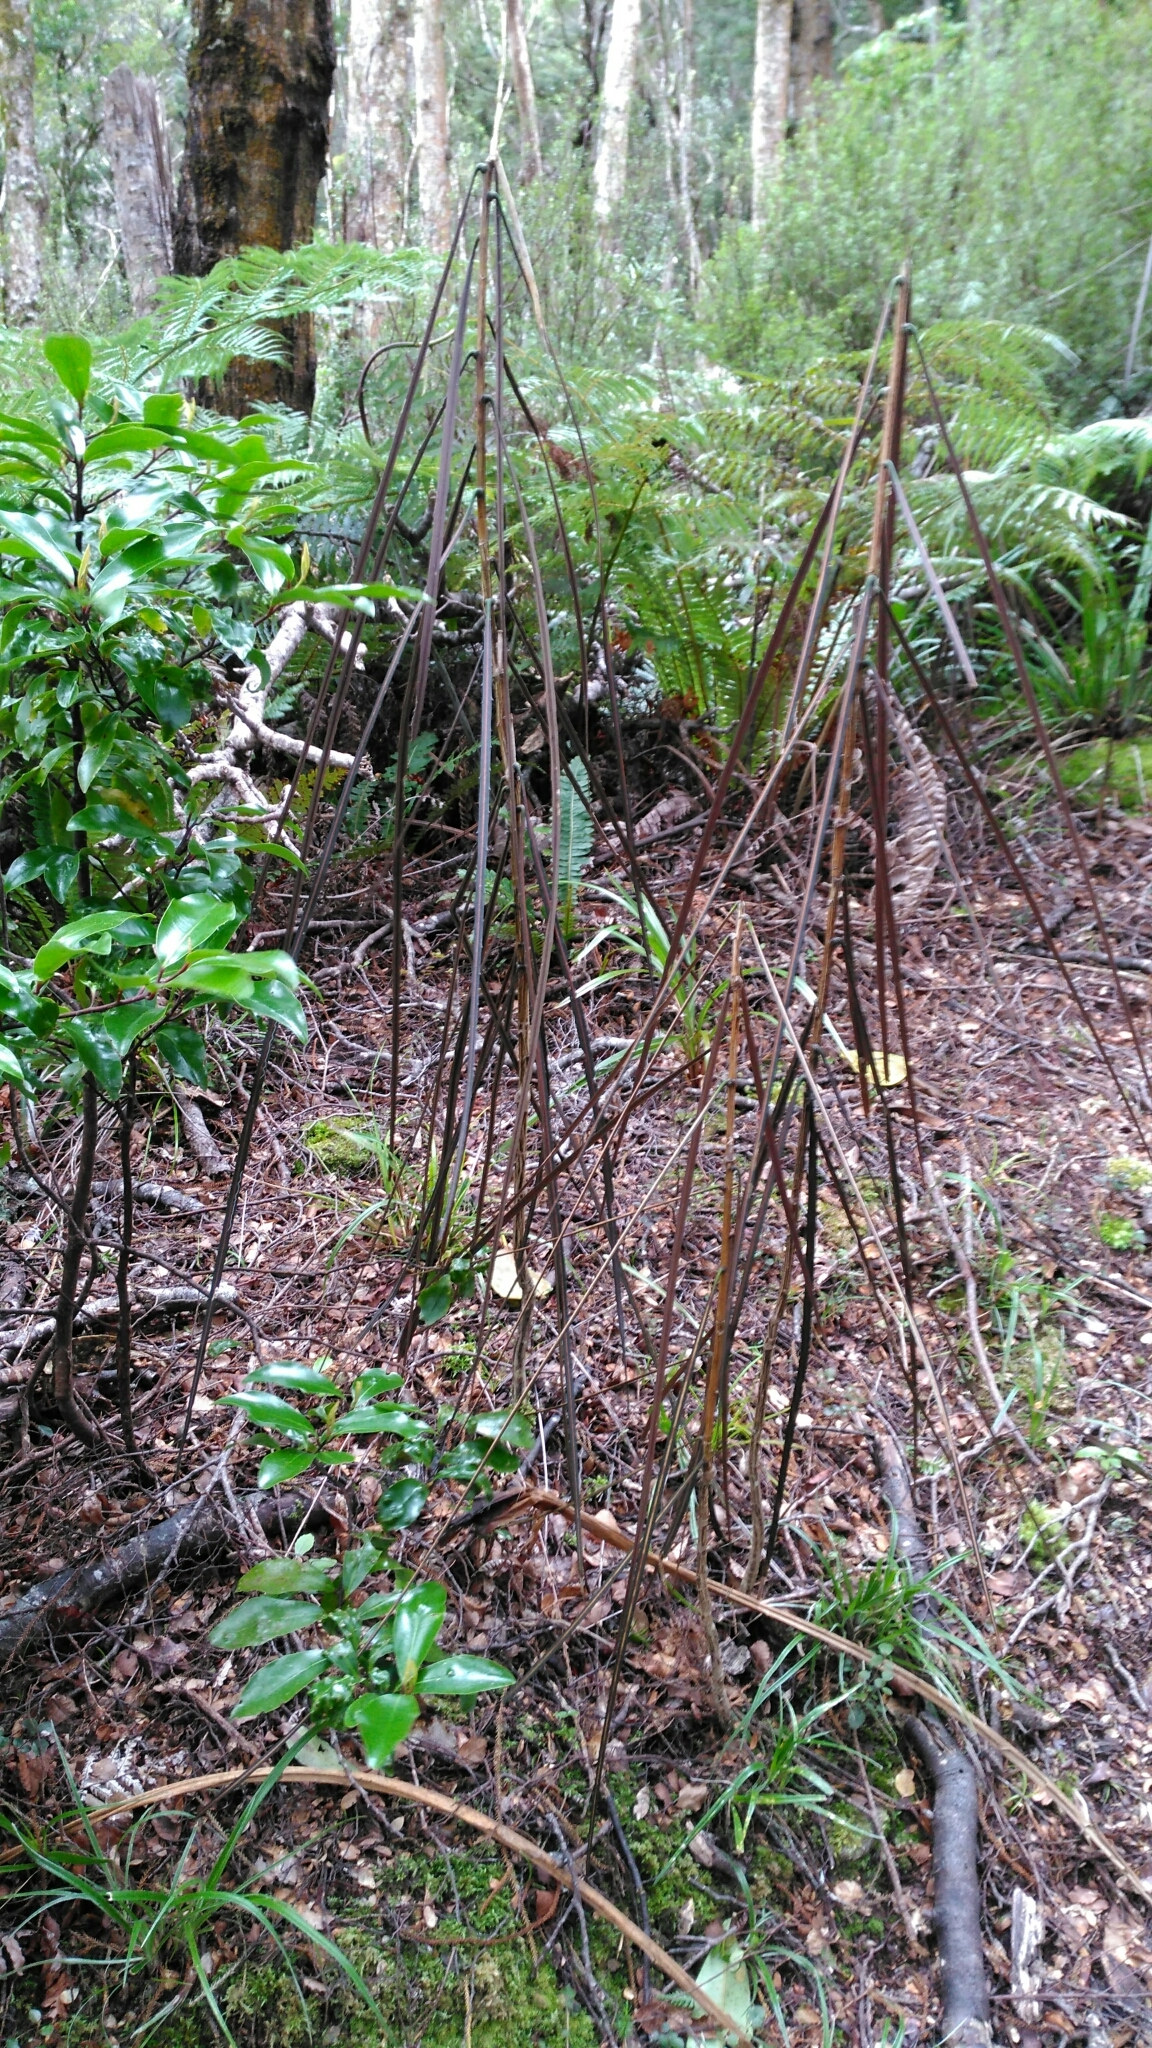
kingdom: Plantae
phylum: Tracheophyta
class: Magnoliopsida
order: Apiales
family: Araliaceae
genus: Pseudopanax
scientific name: Pseudopanax crassifolius
